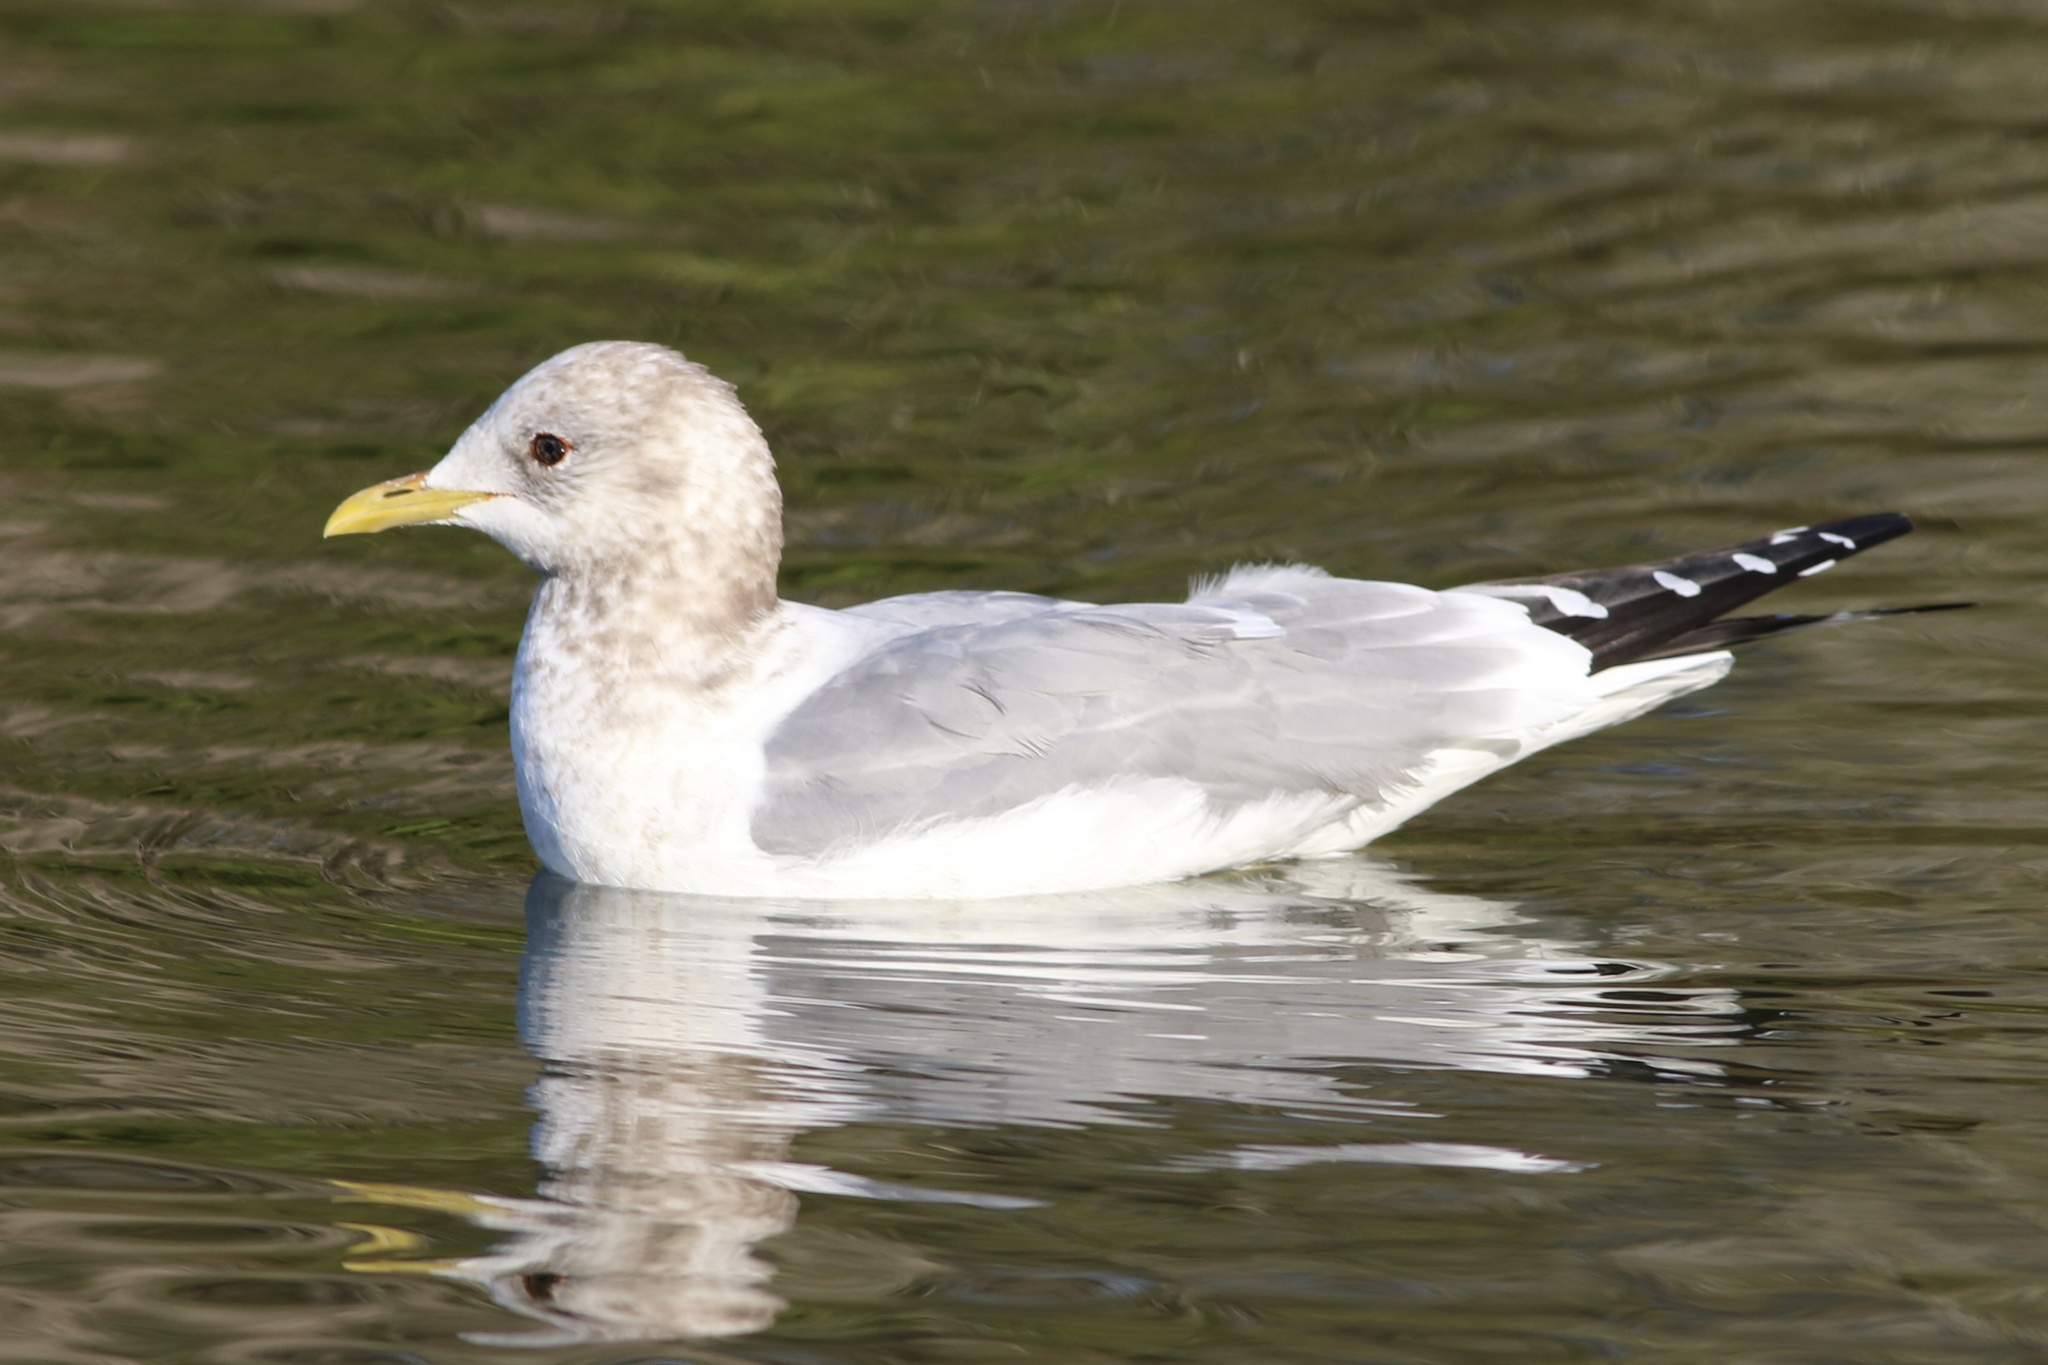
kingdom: Animalia
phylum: Chordata
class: Aves
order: Charadriiformes
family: Laridae
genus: Larus
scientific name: Larus brachyrhynchus
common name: Short-billed gull
